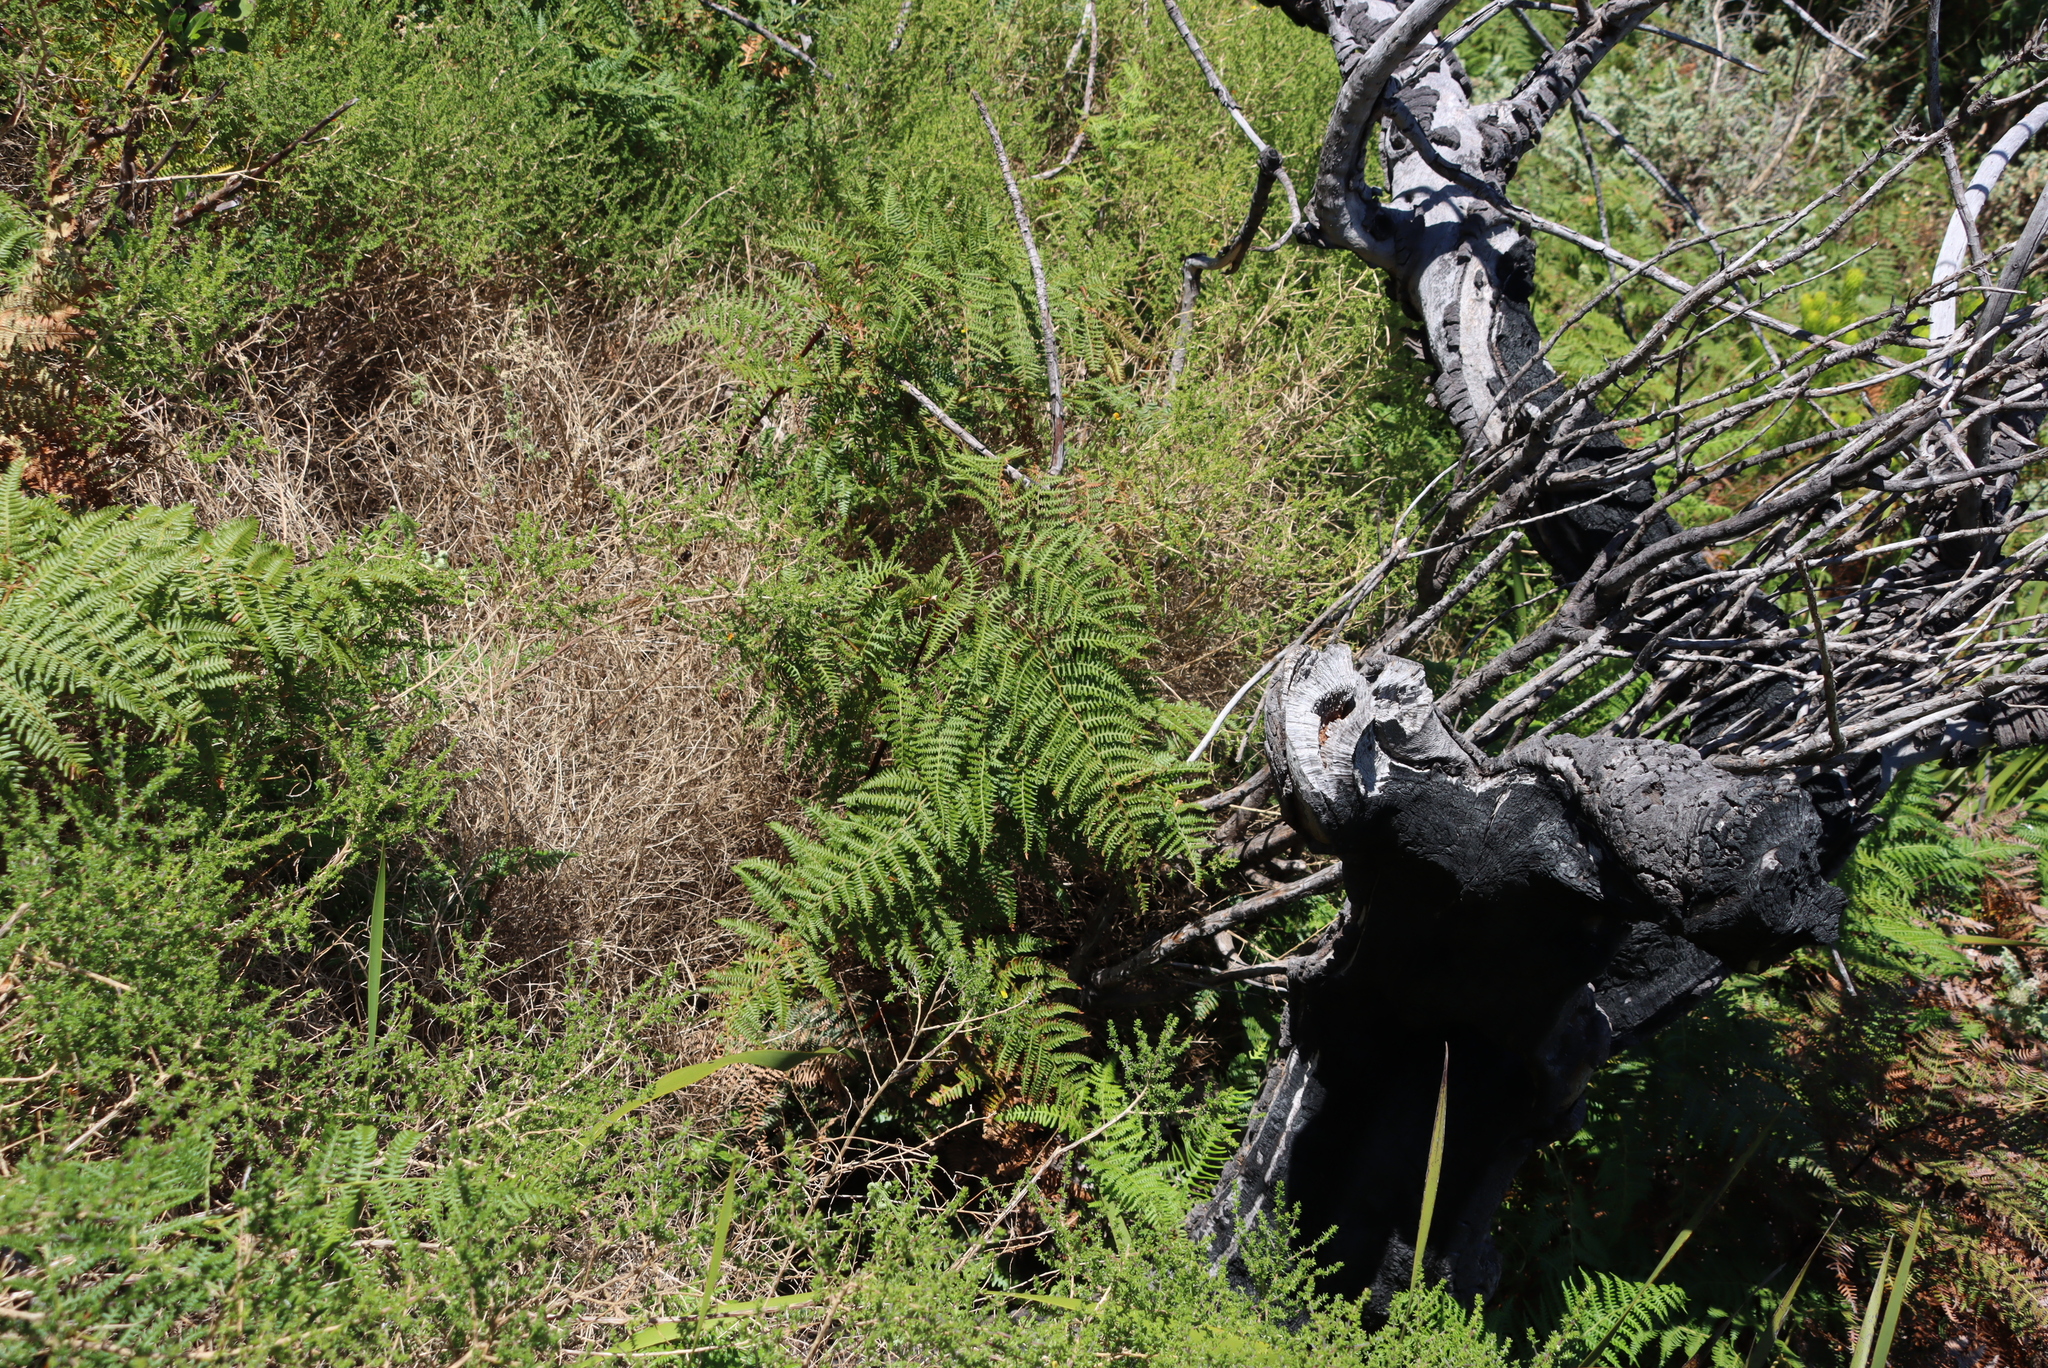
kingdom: Plantae
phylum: Tracheophyta
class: Polypodiopsida
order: Polypodiales
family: Dennstaedtiaceae
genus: Pteridium
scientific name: Pteridium aquilinum
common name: Bracken
